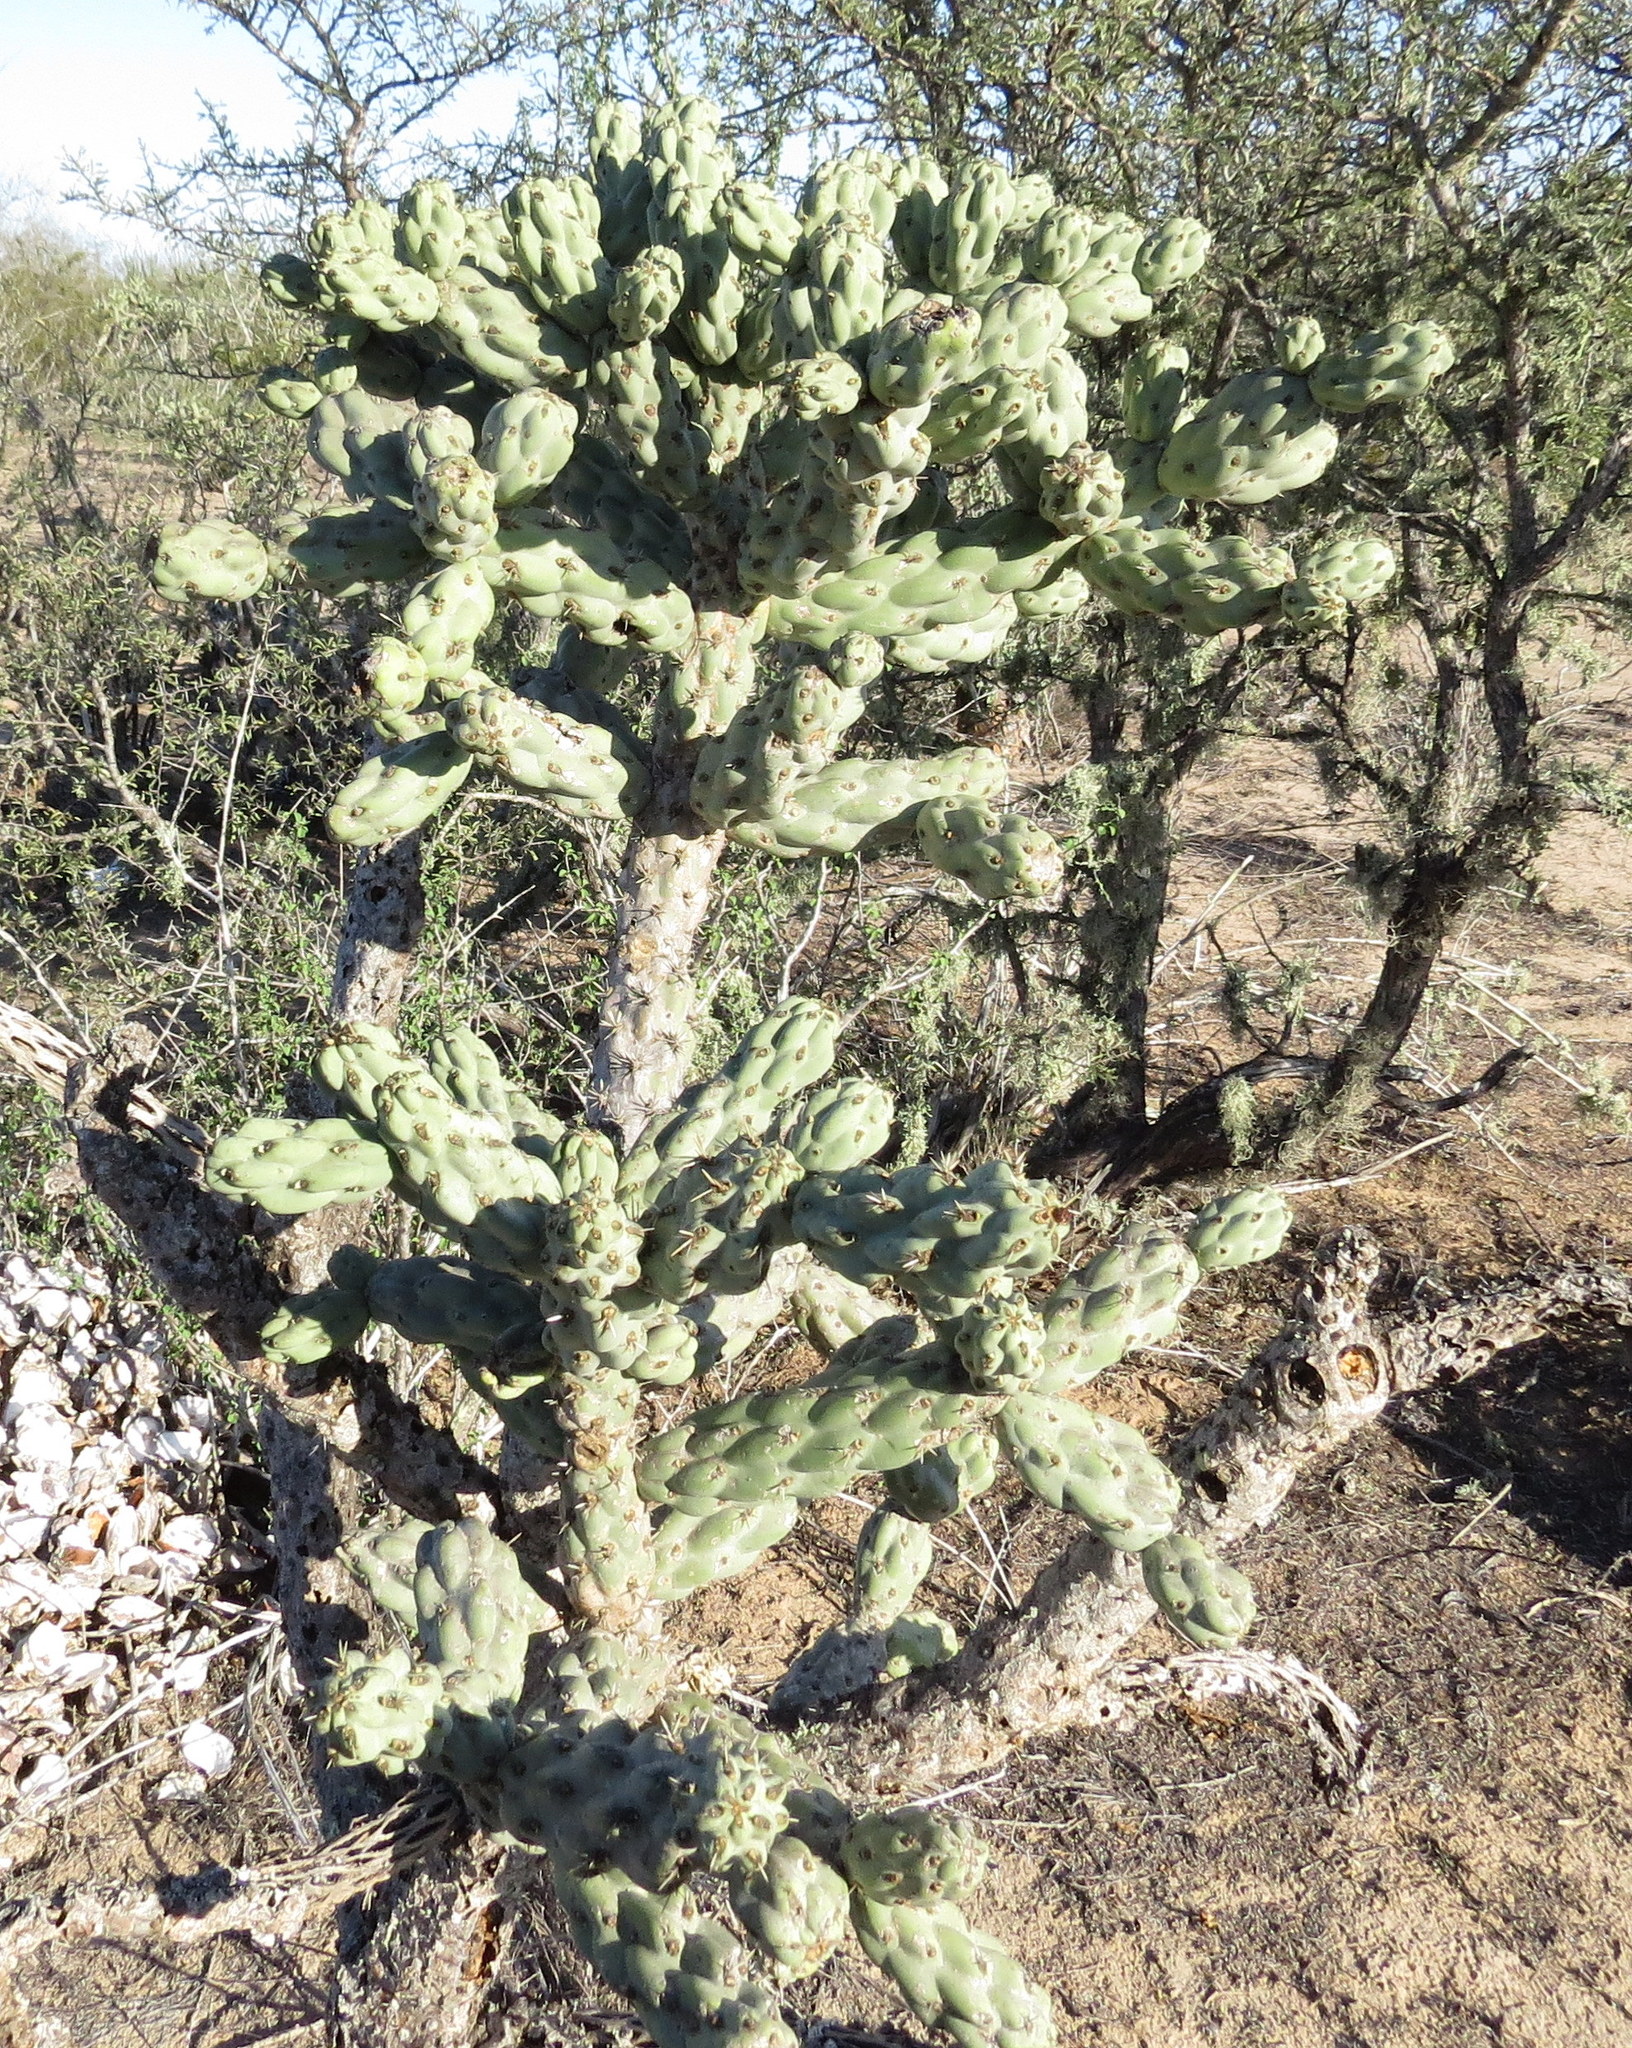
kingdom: Plantae
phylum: Tracheophyta
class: Magnoliopsida
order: Caryophyllales
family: Cactaceae
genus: Cylindropuntia
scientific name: Cylindropuntia cholla
